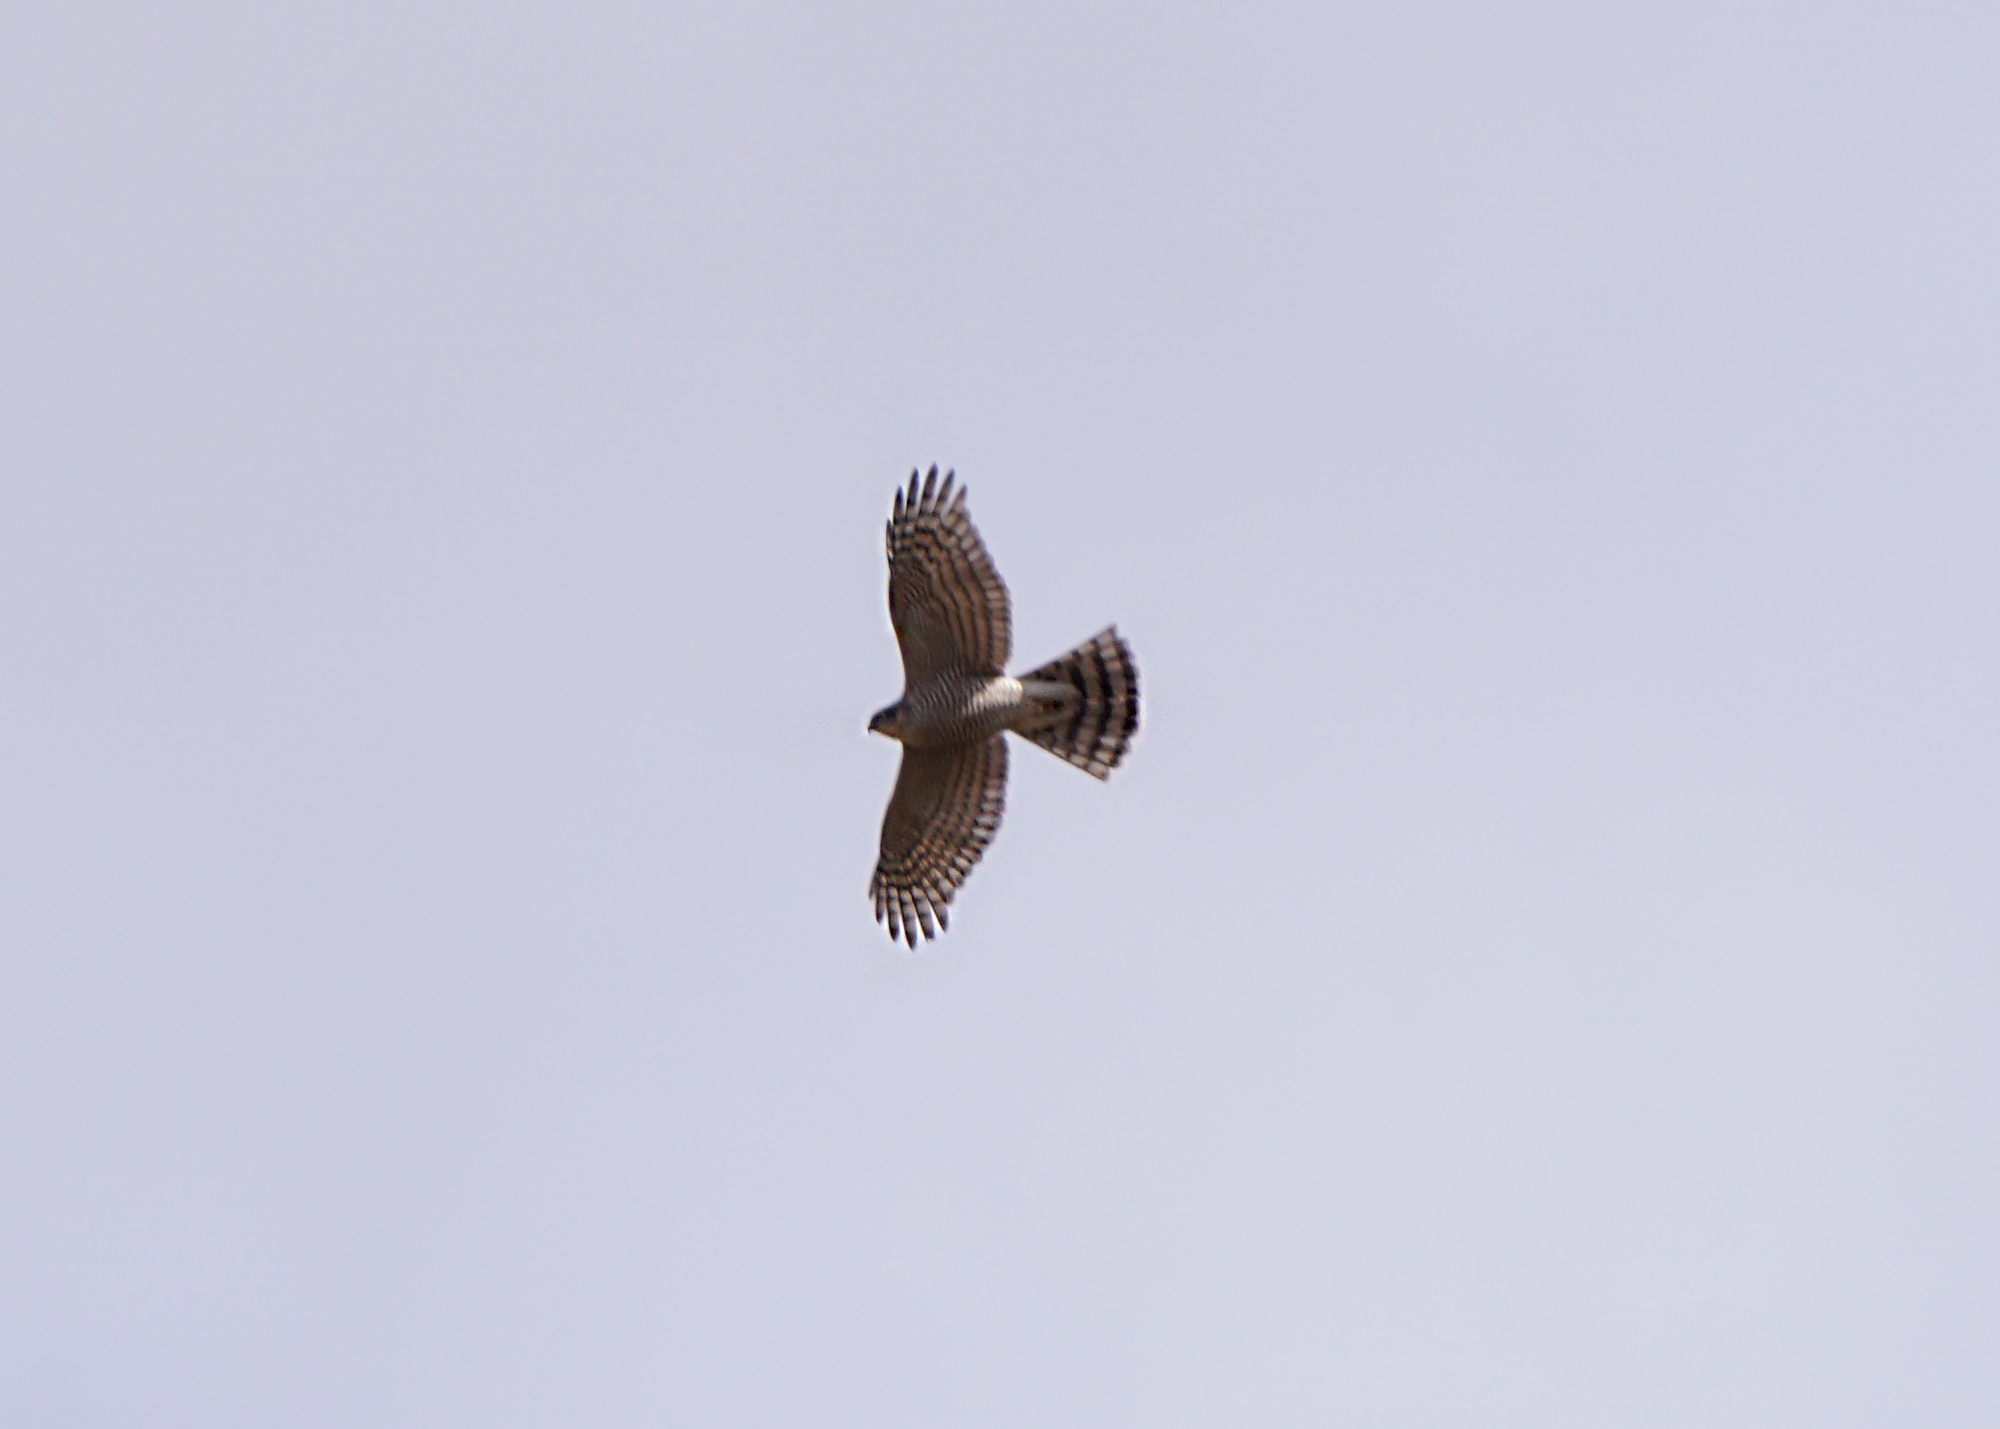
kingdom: Animalia
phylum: Chordata
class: Aves
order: Accipitriformes
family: Accipitridae
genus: Accipiter
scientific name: Accipiter nisus
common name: Eurasian sparrowhawk
